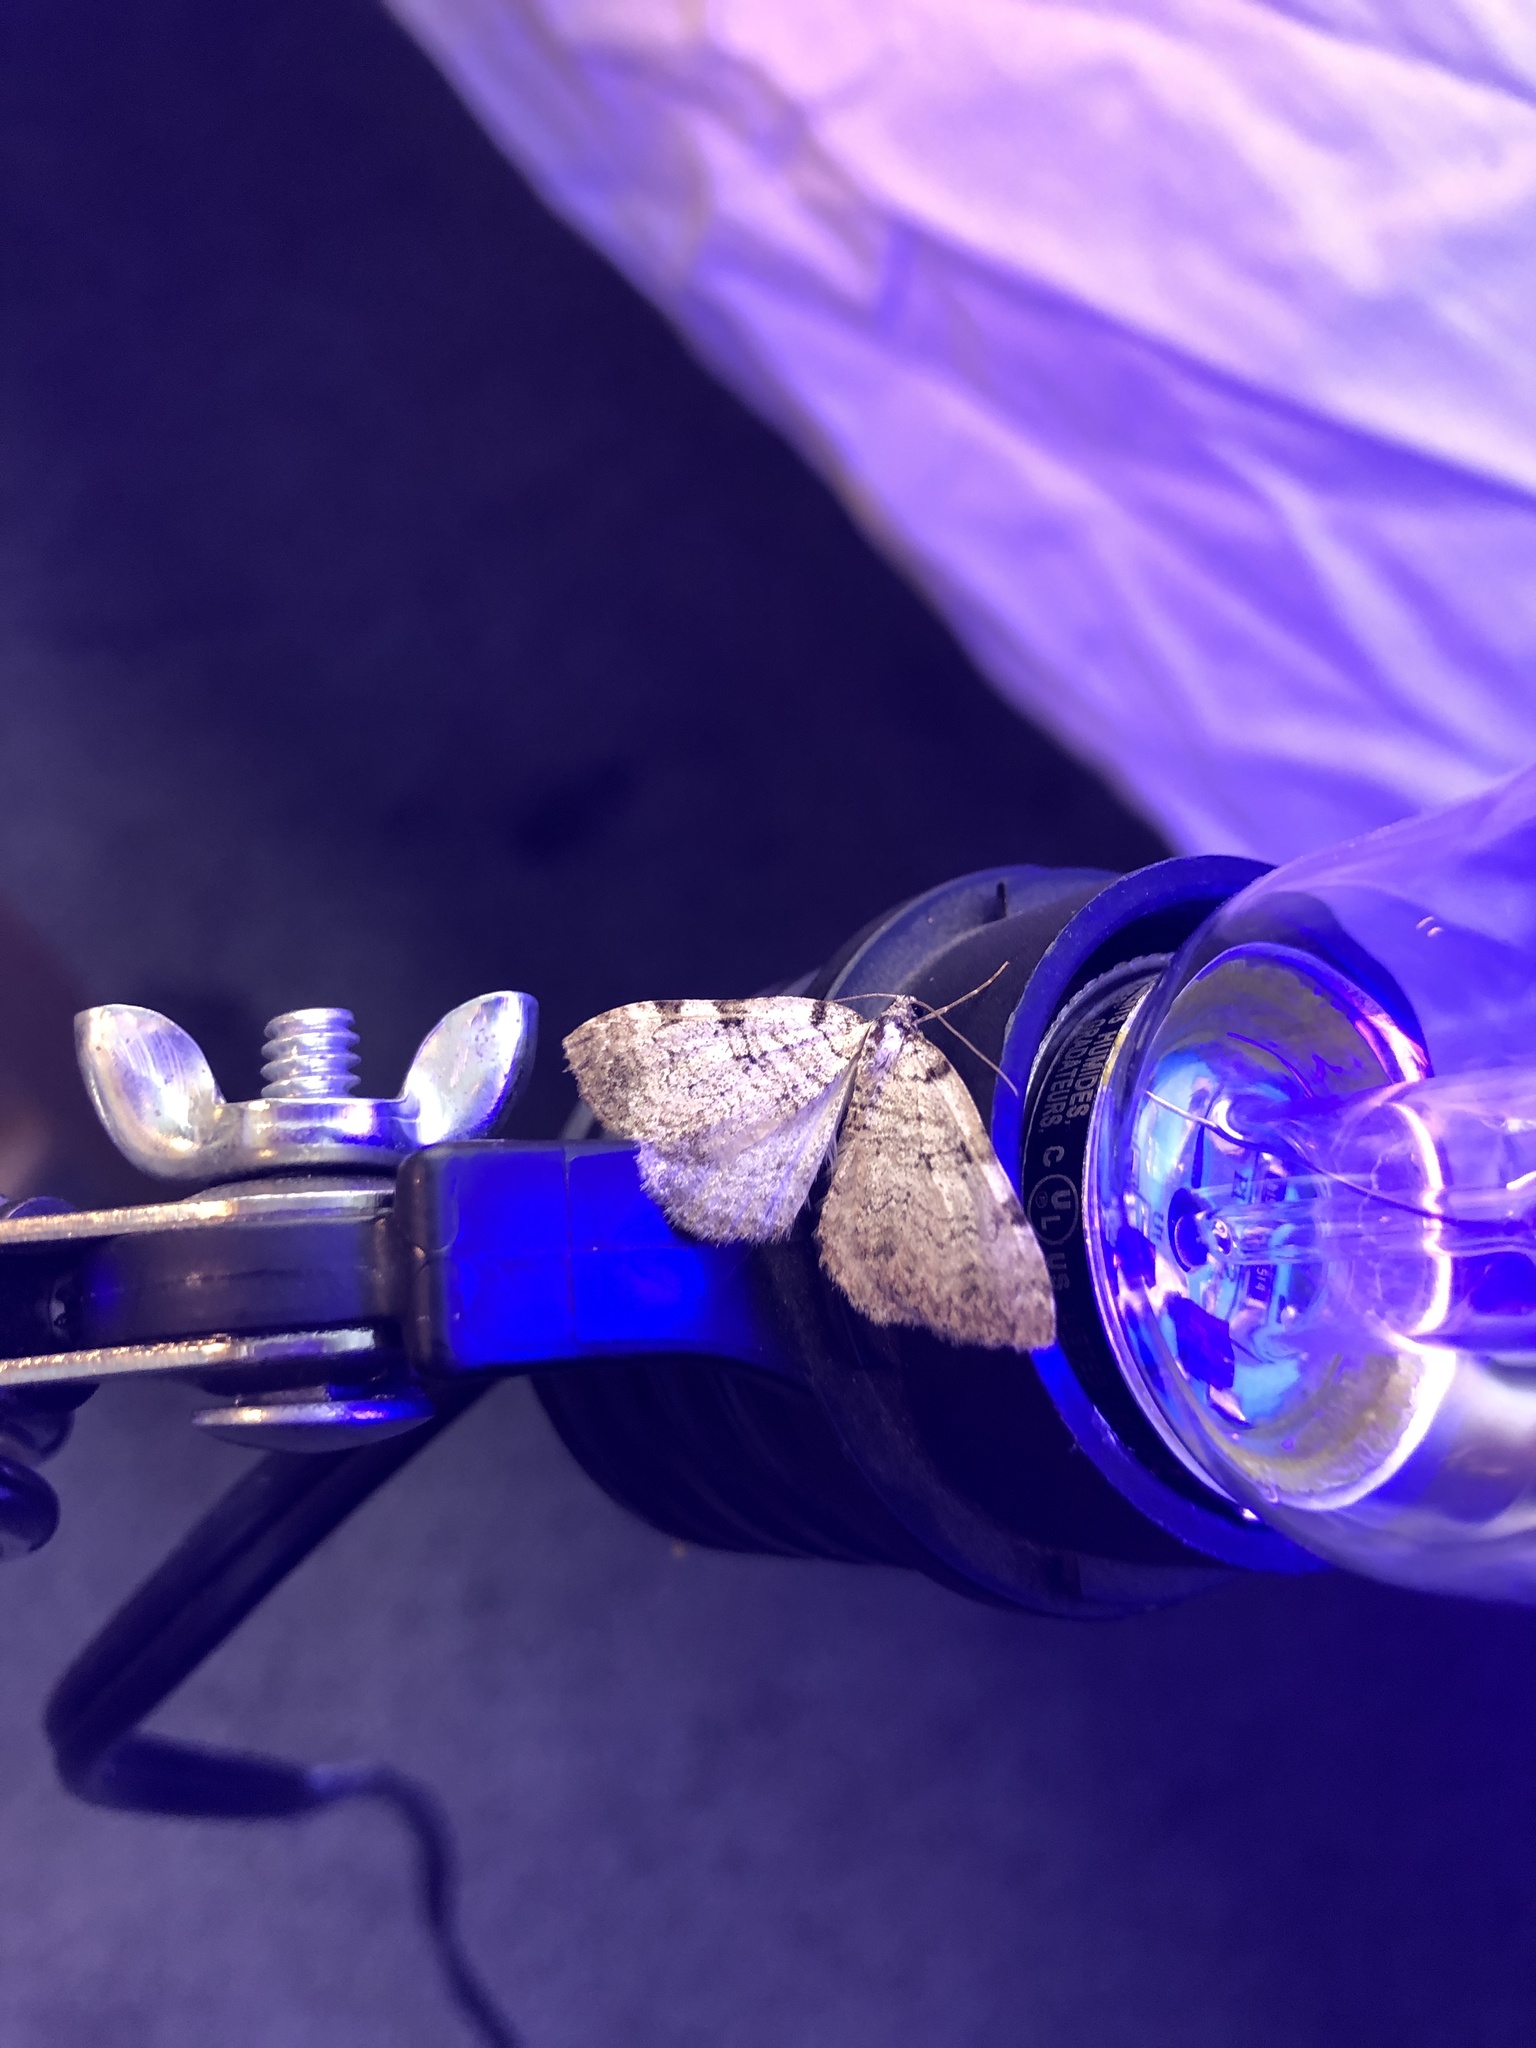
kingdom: Animalia
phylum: Arthropoda
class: Insecta
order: Lepidoptera
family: Geometridae
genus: Perizoma
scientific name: Perizoma curvilinea
